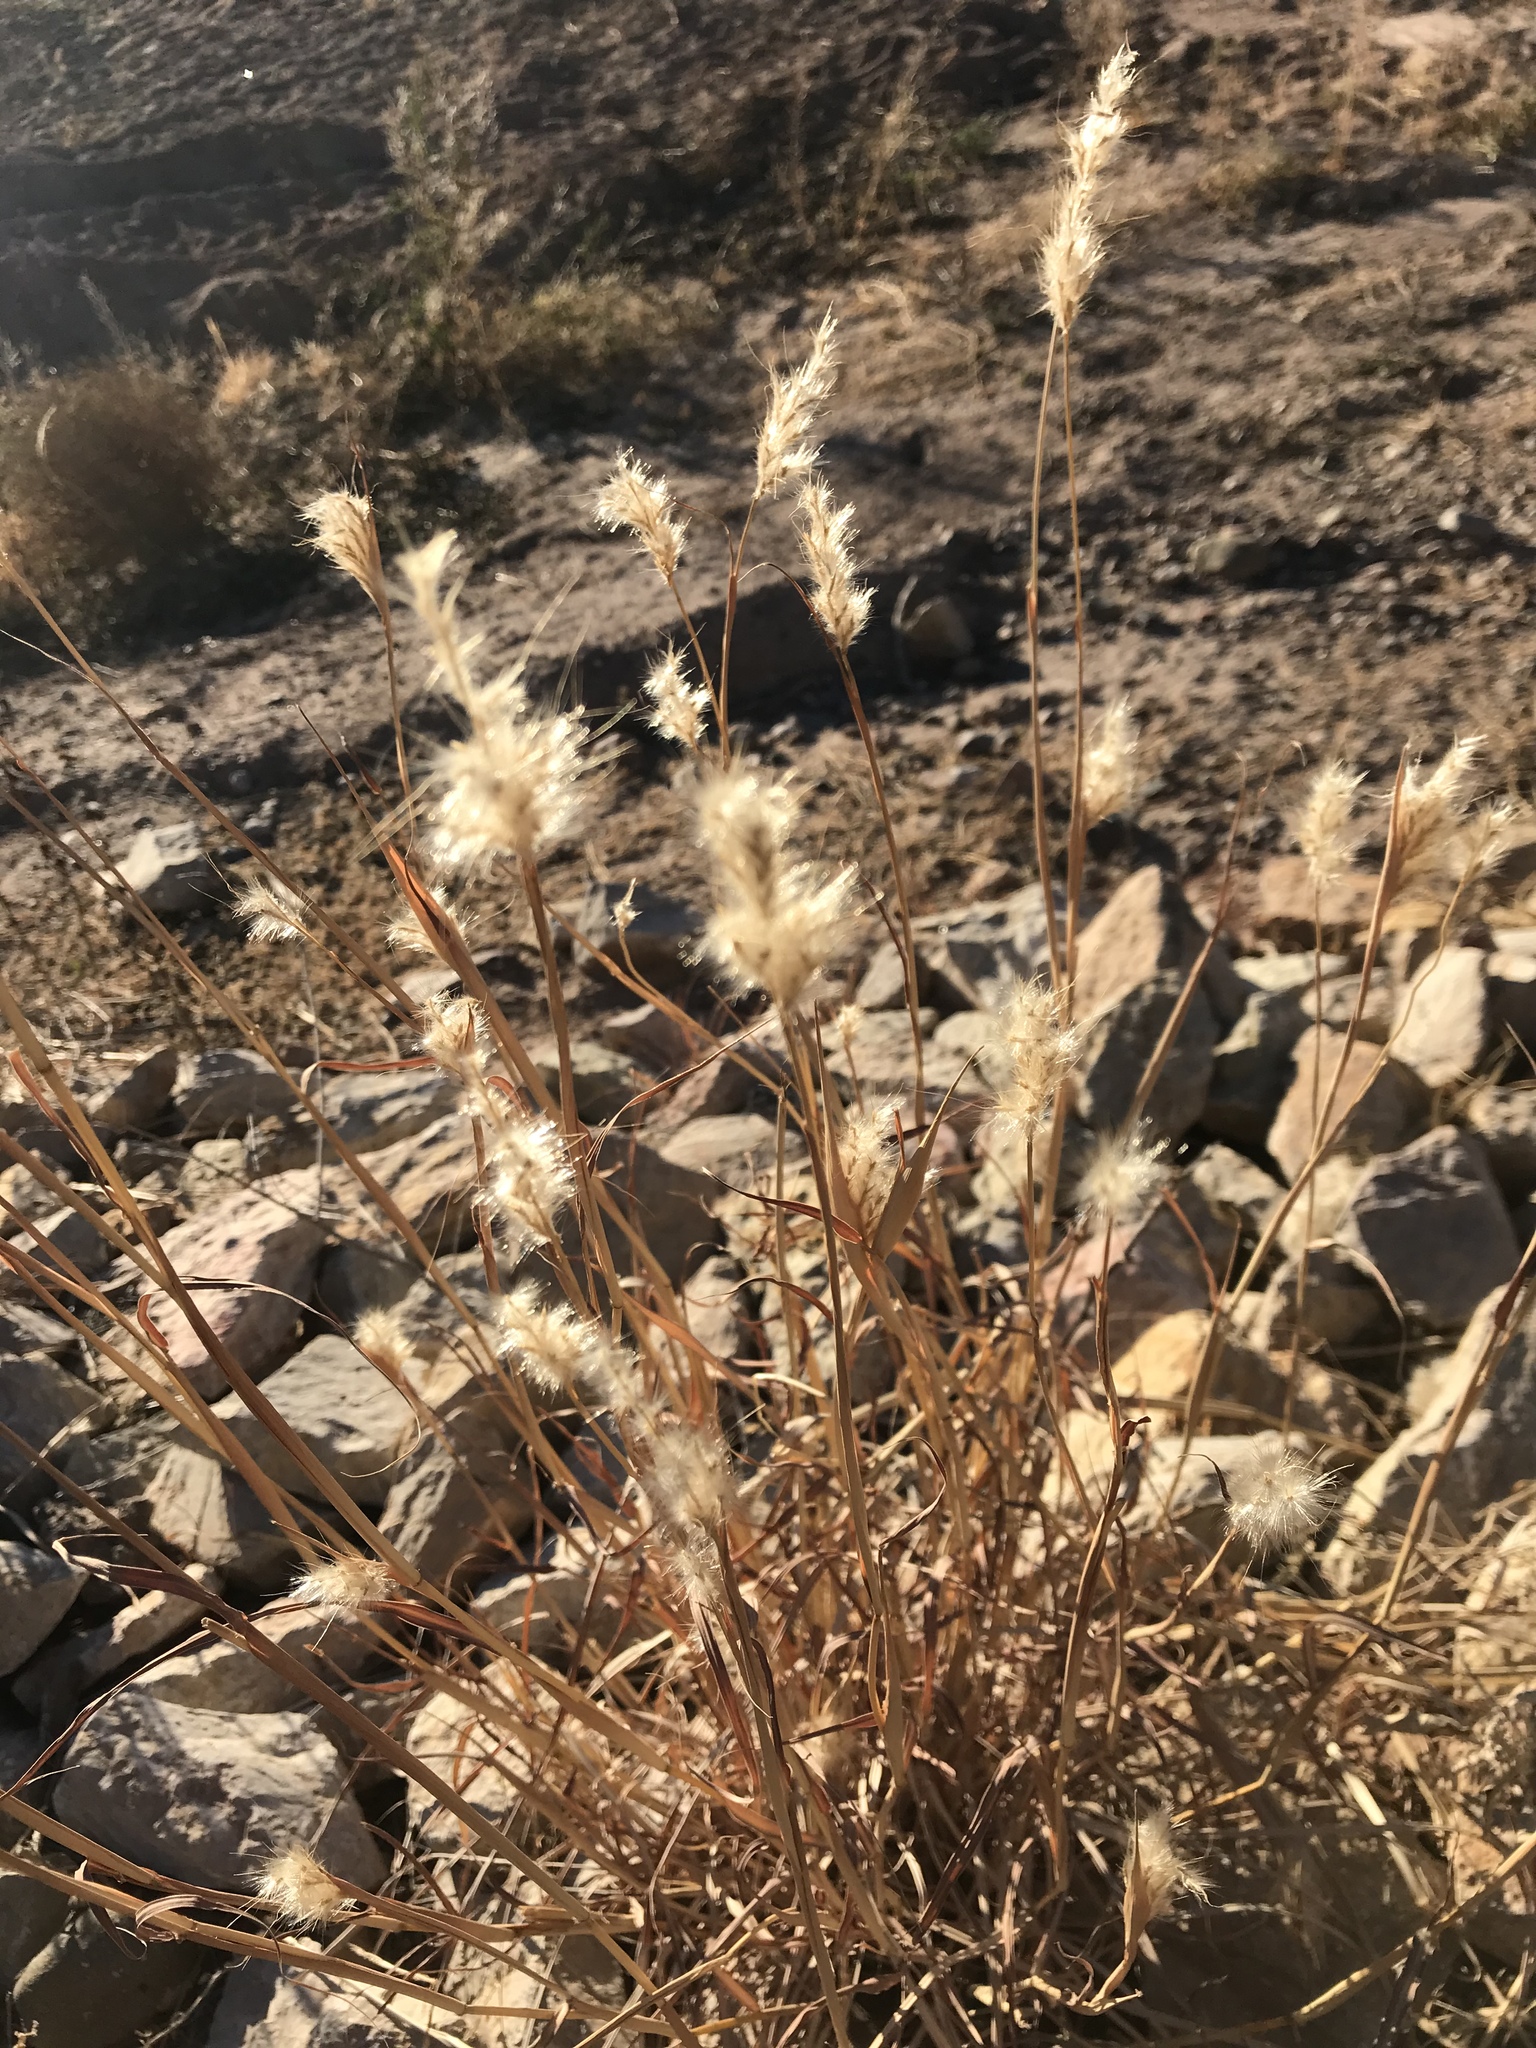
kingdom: Plantae
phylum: Tracheophyta
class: Liliopsida
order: Poales
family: Poaceae
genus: Bothriochloa
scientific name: Bothriochloa barbinodis
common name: Cane bluestem
